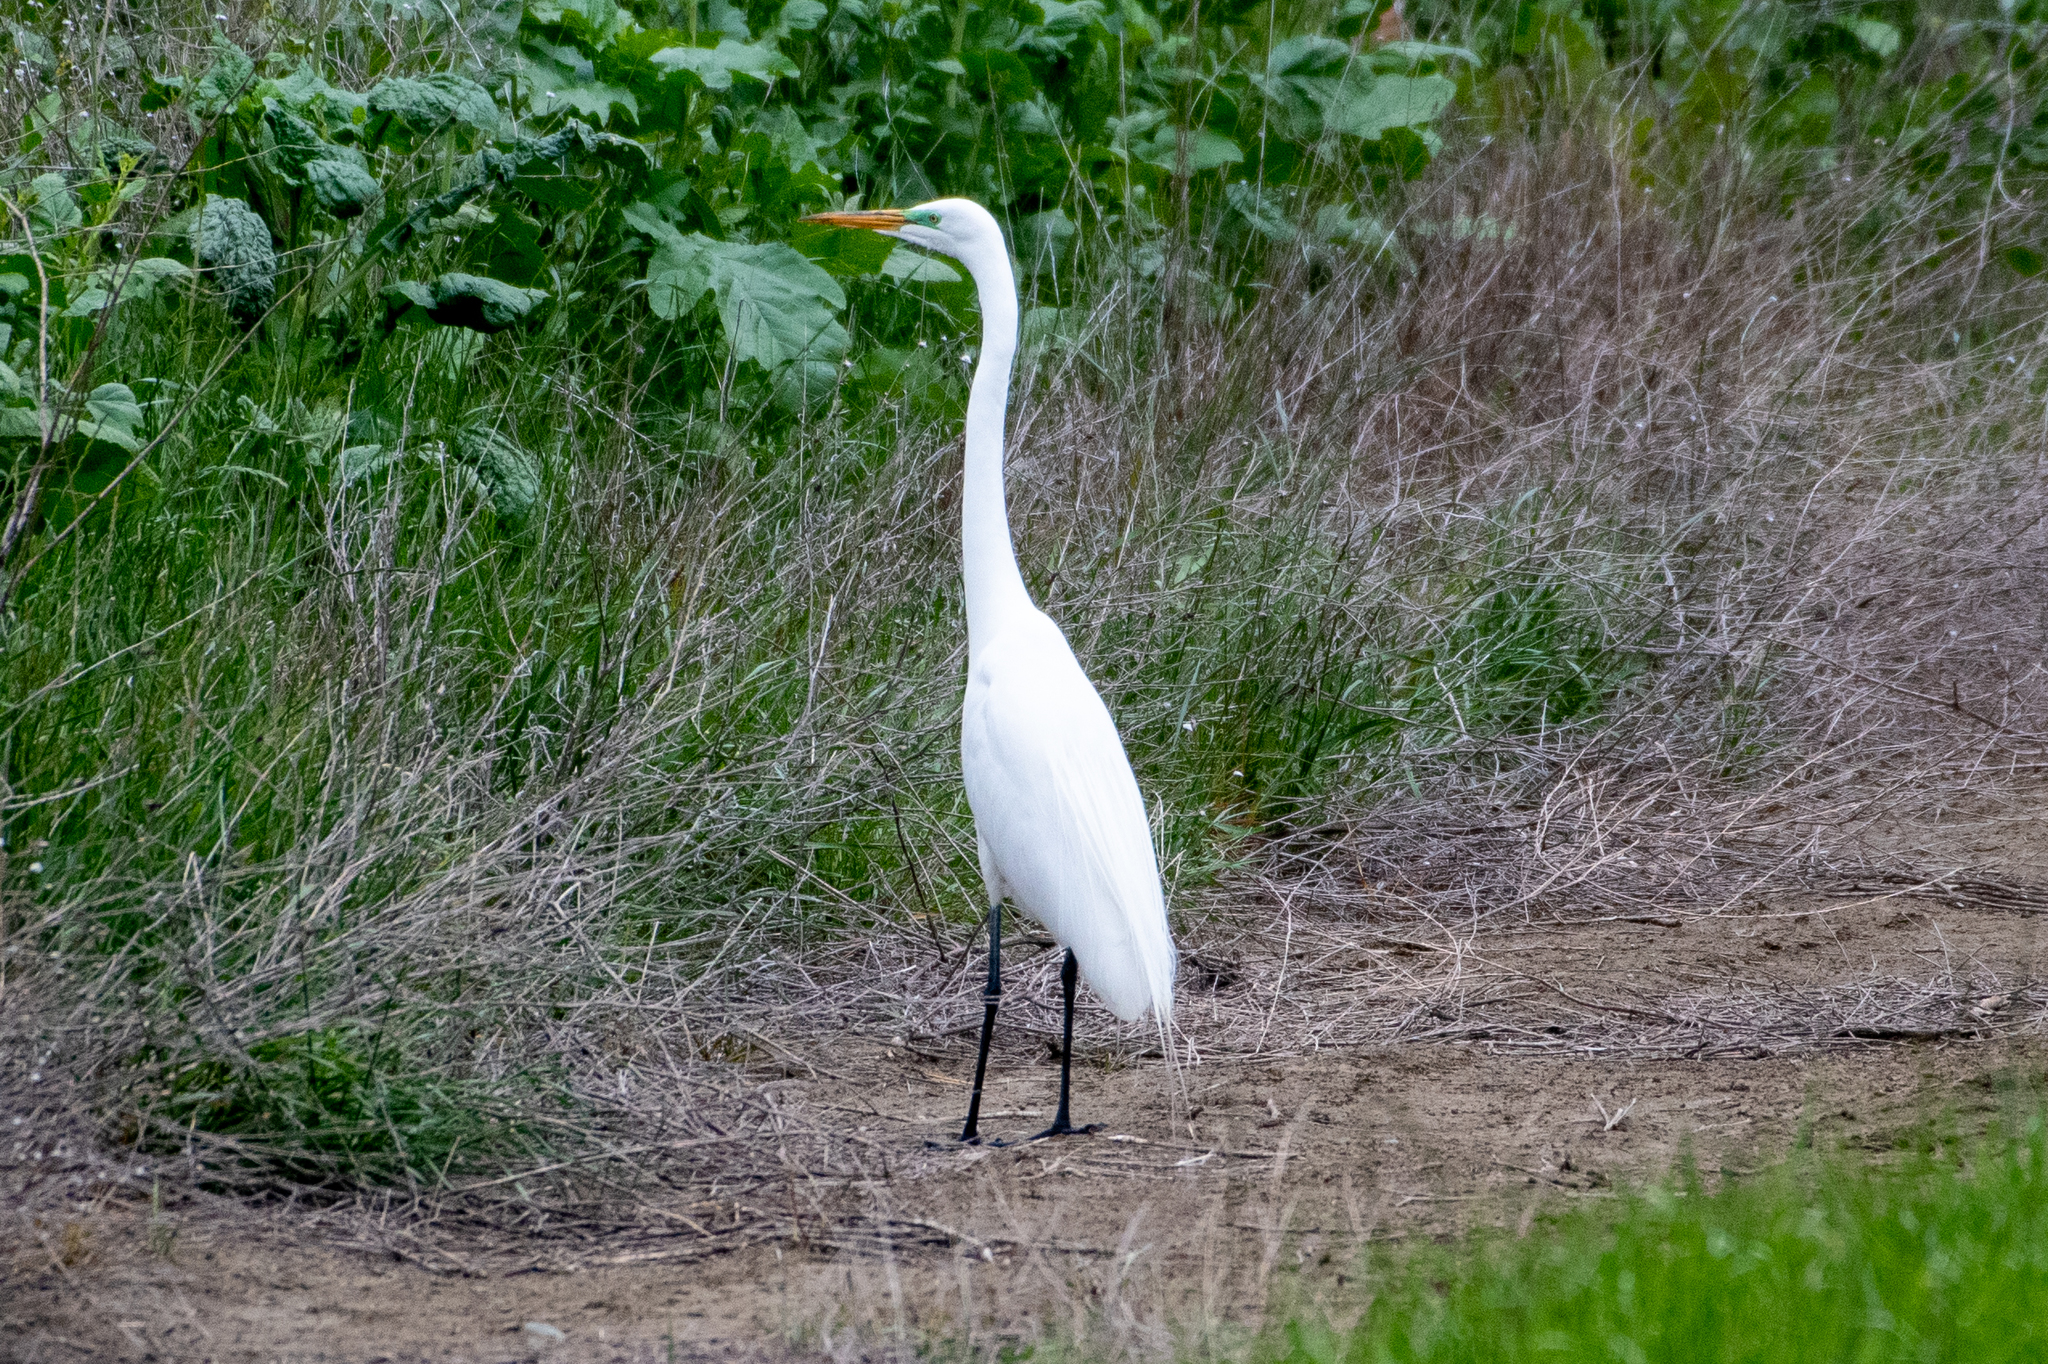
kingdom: Animalia
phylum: Chordata
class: Aves
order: Pelecaniformes
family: Ardeidae
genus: Ardea
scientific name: Ardea alba
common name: Great egret
